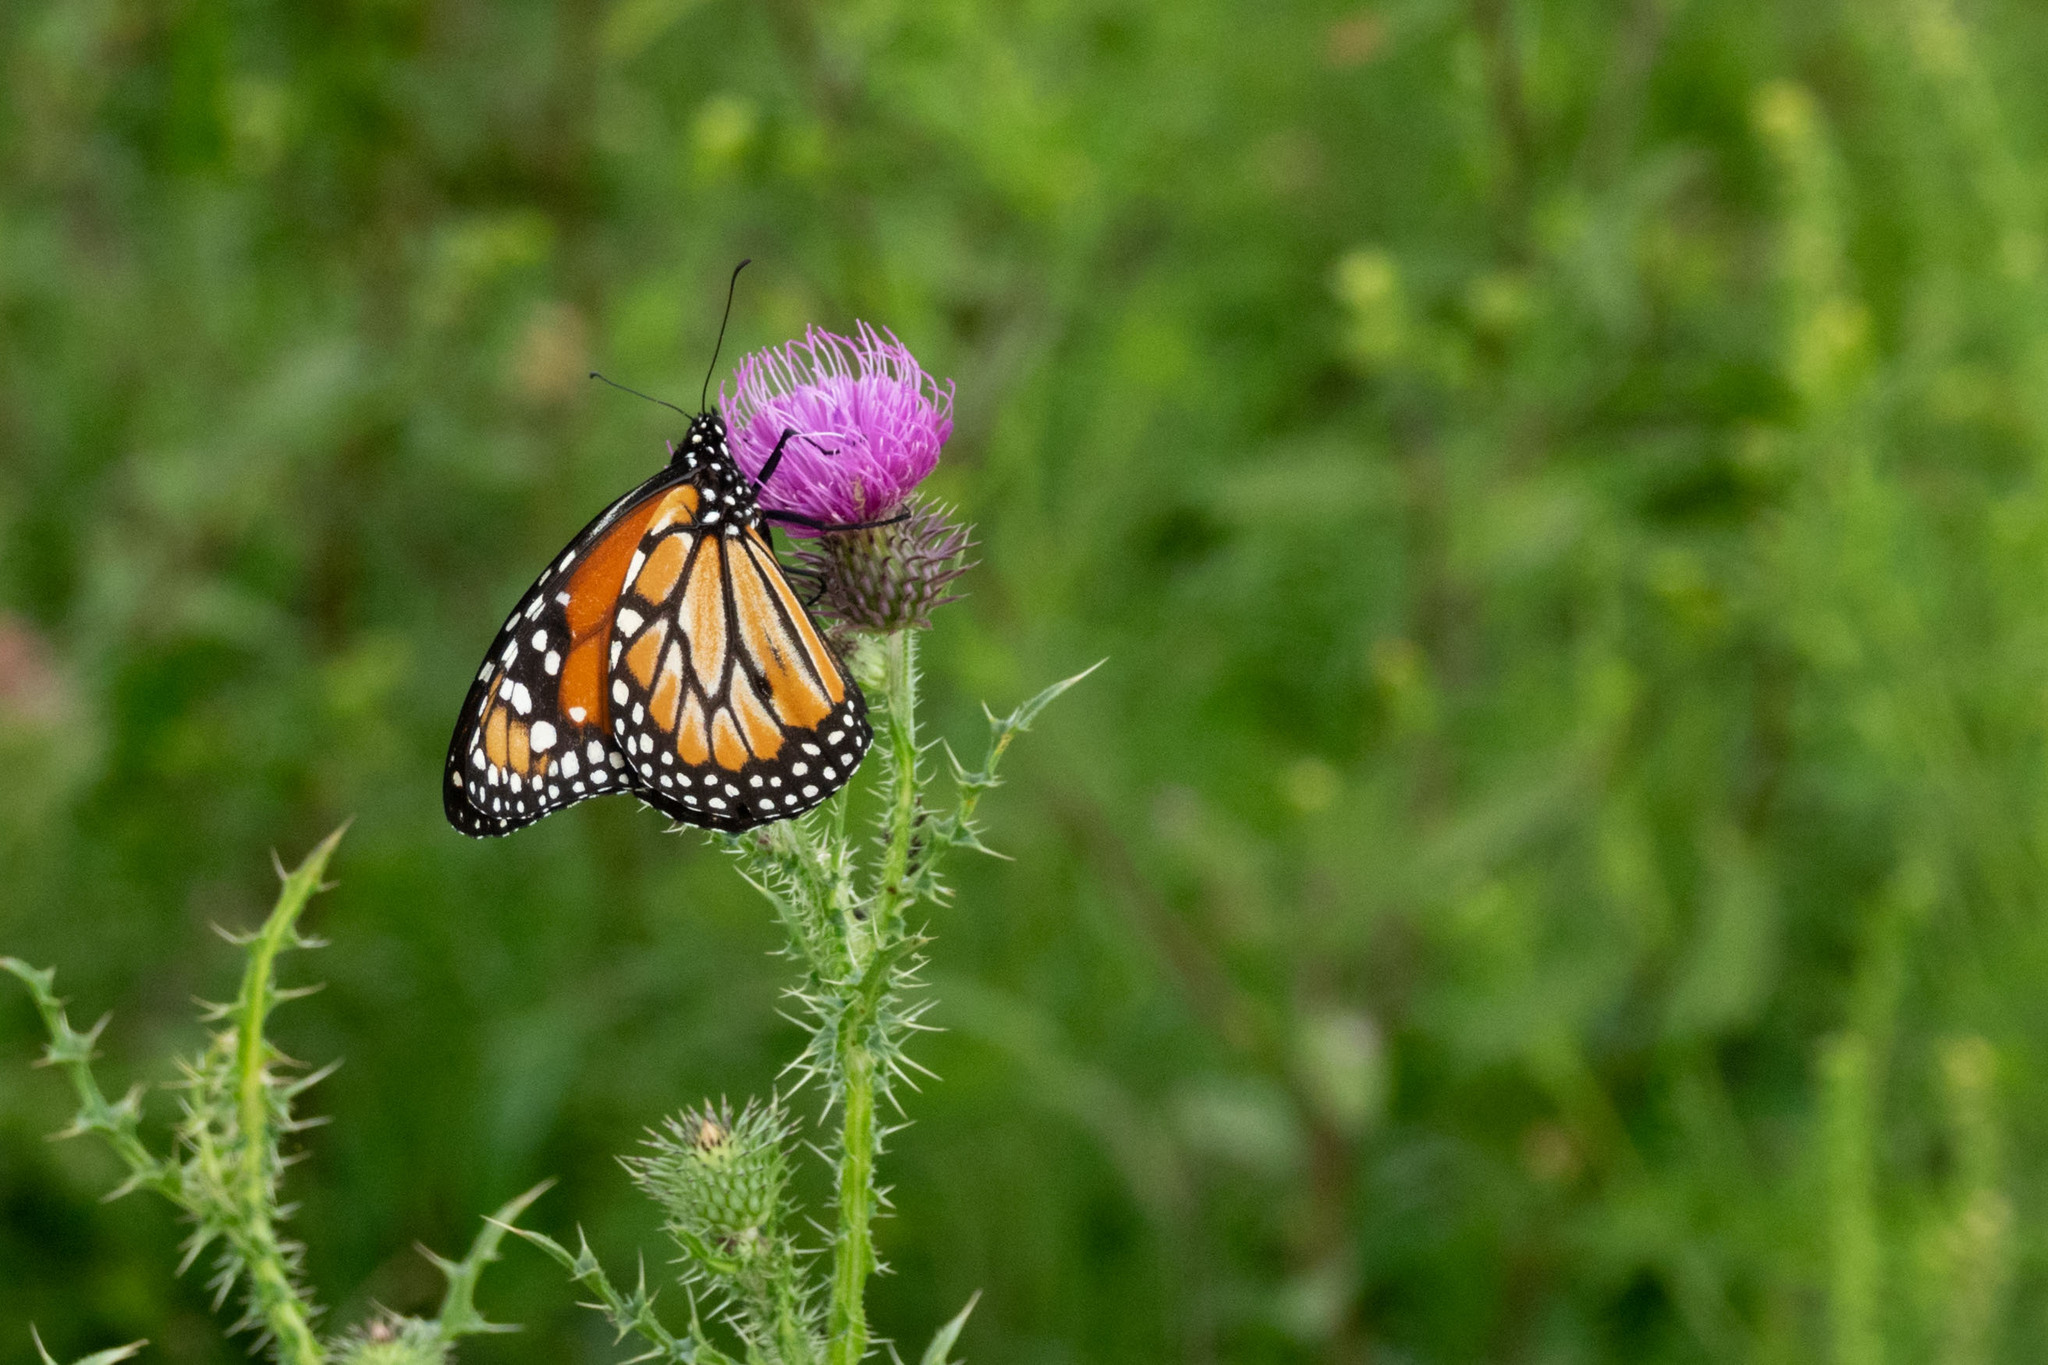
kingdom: Animalia
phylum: Arthropoda
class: Insecta
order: Lepidoptera
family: Nymphalidae
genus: Danaus
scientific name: Danaus erippus
